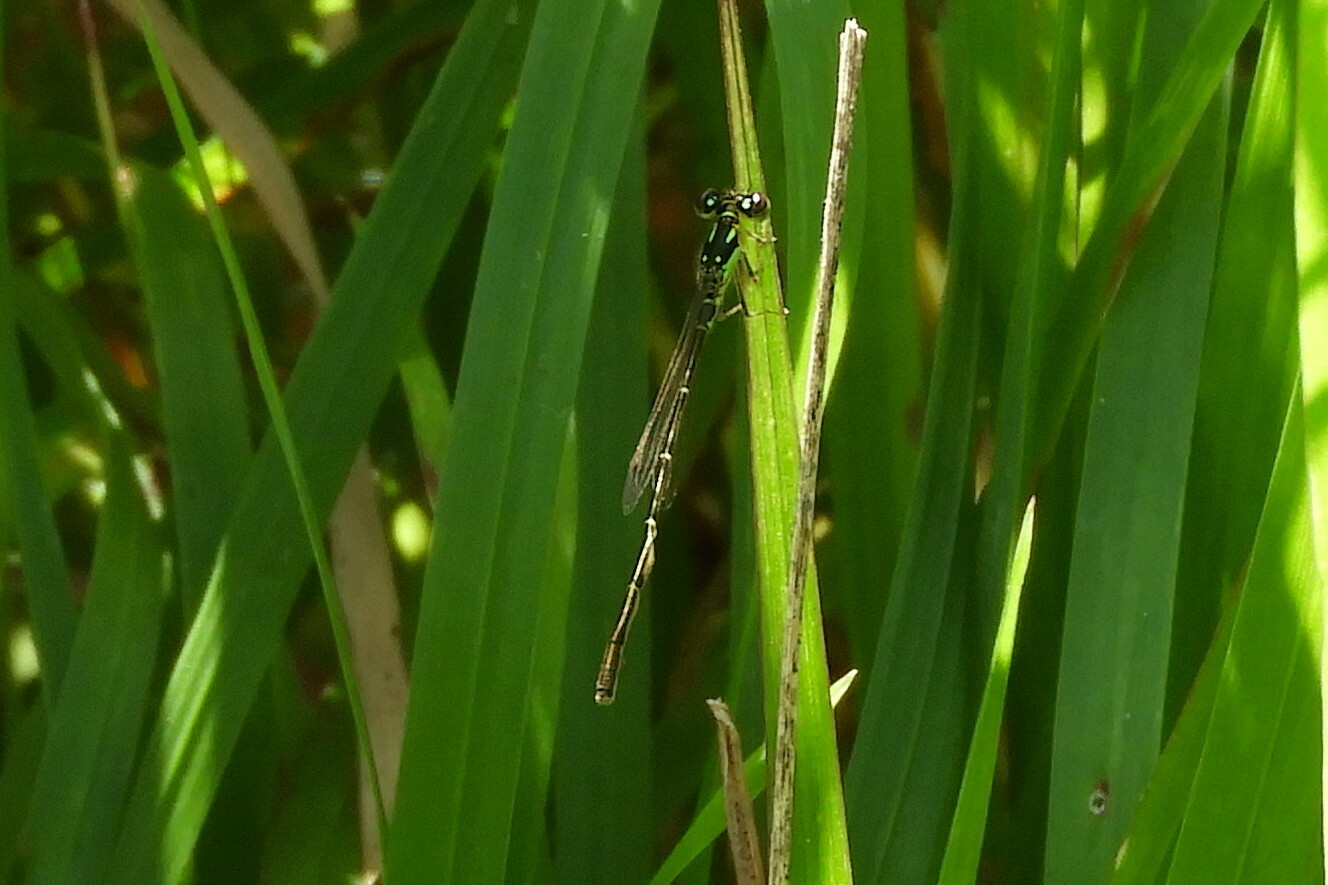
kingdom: Animalia
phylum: Arthropoda
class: Insecta
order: Odonata
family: Coenagrionidae
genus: Ischnura
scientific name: Ischnura posita
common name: Fragile forktail
